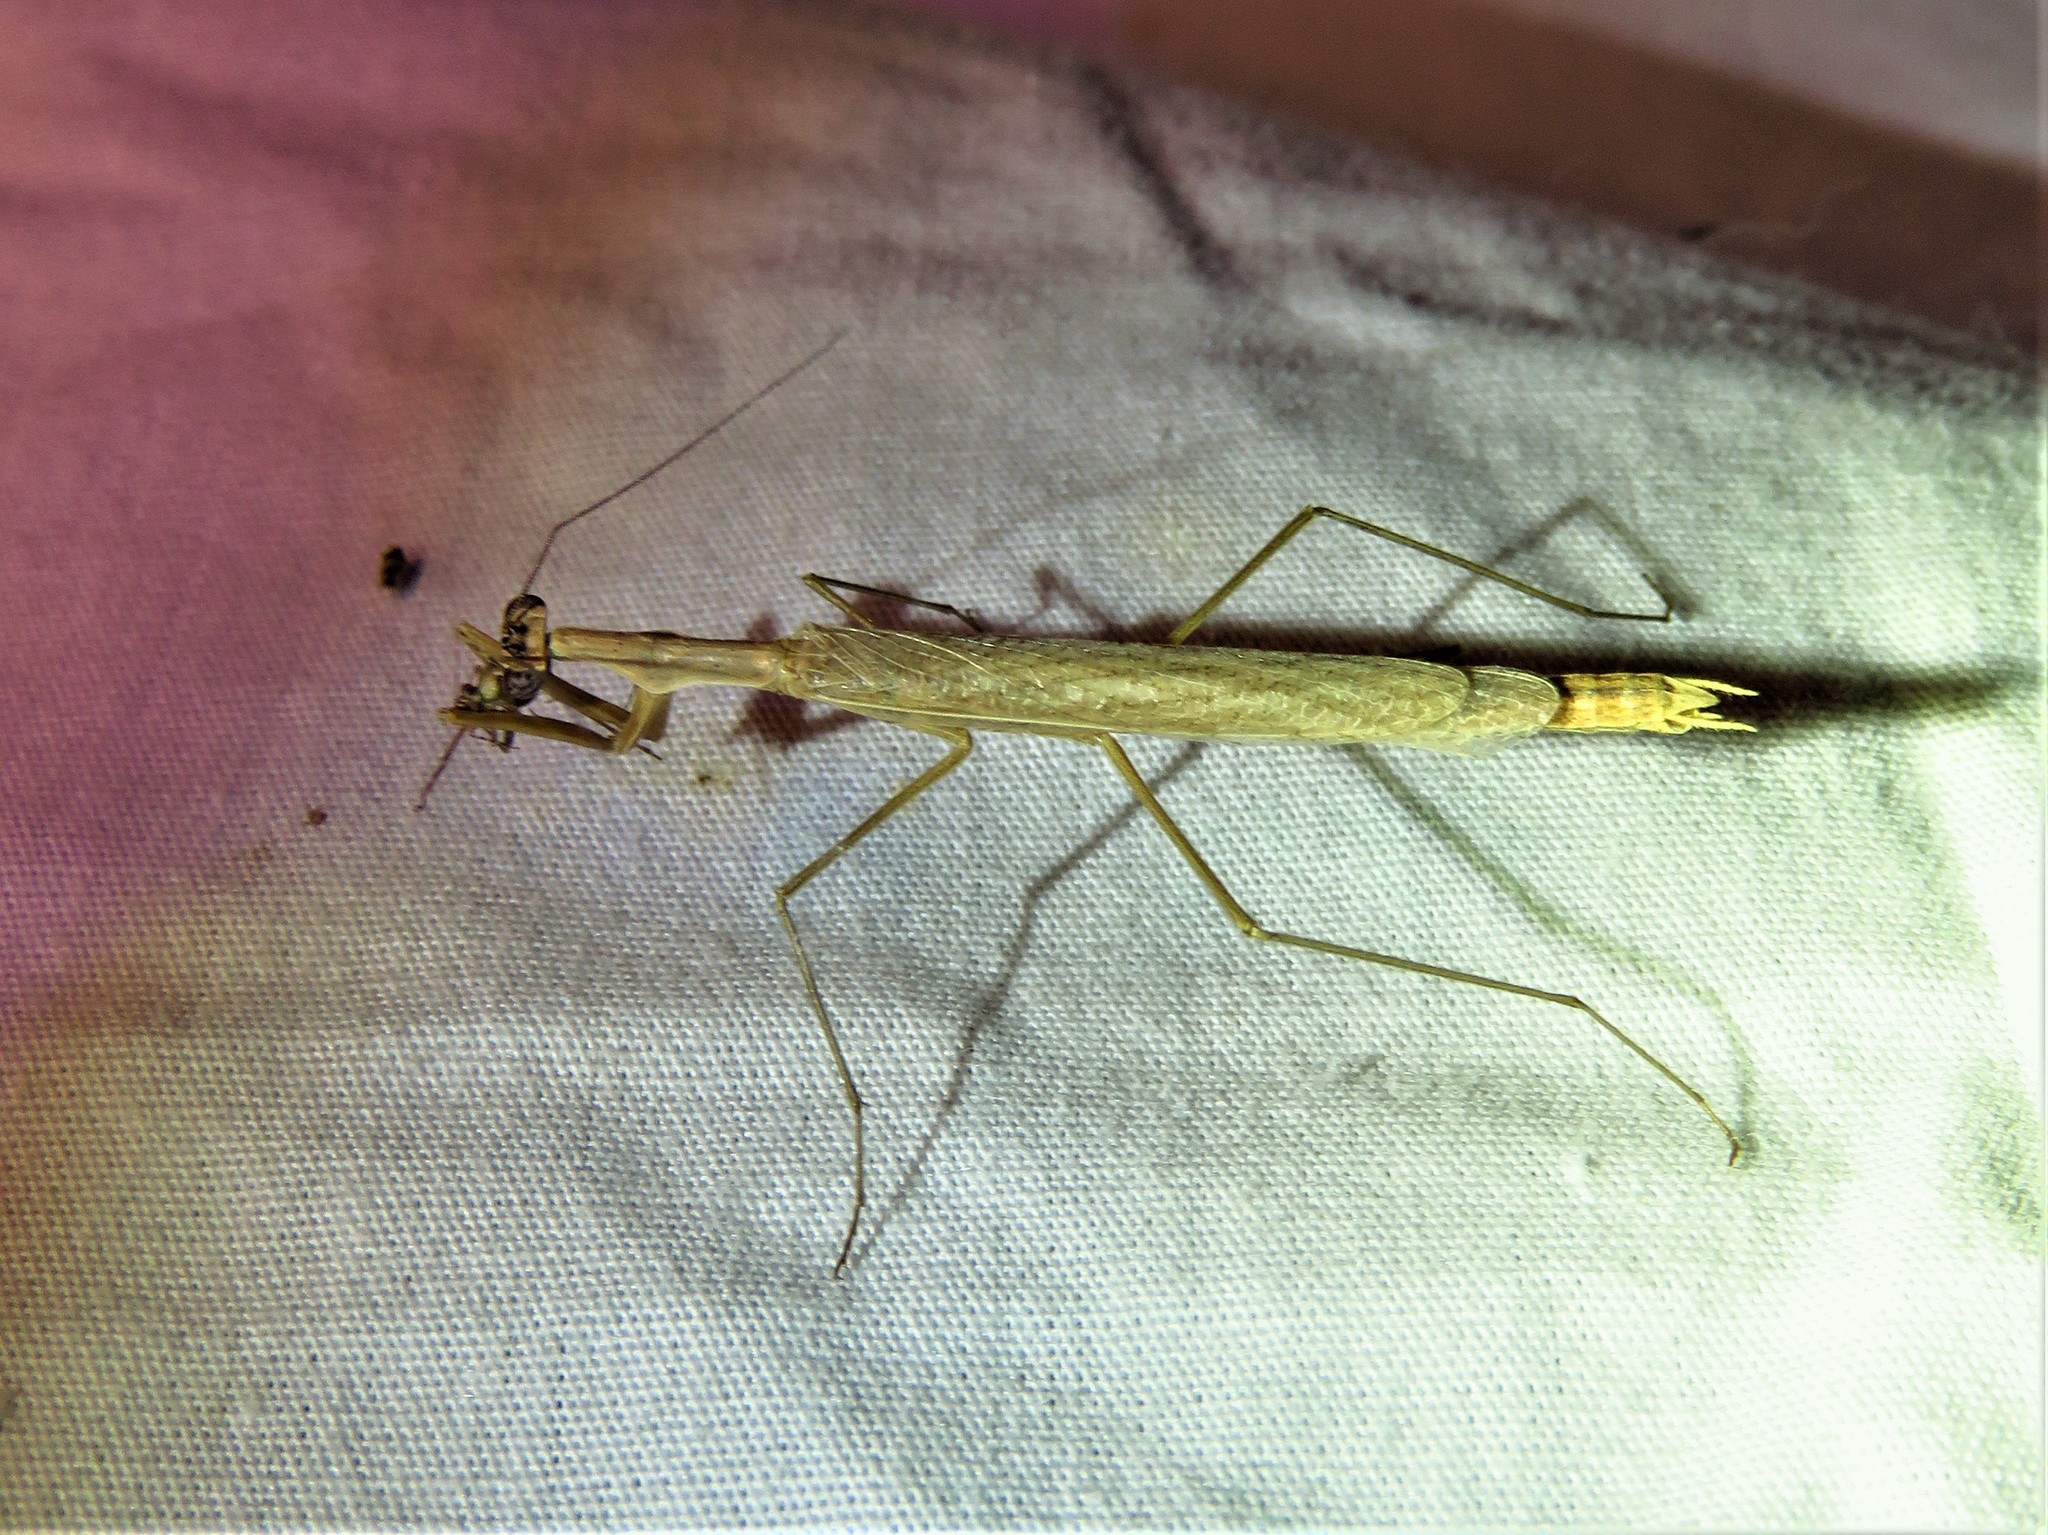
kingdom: Animalia
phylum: Arthropoda
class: Insecta
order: Mantodea
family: Thespidae
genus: Oligonicella
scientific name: Oligonicella scudderi
